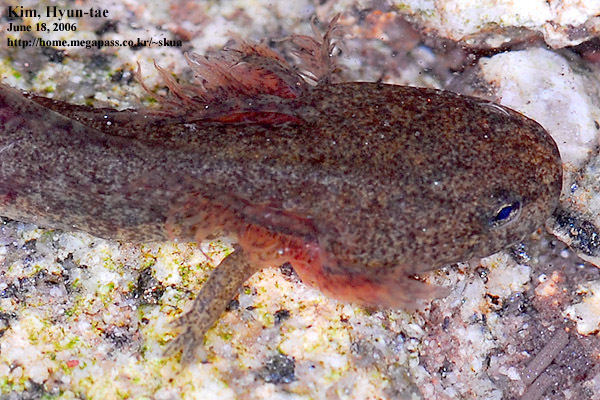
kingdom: Animalia
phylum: Chordata
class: Amphibia
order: Caudata
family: Hynobiidae
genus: Hynobius
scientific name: Hynobius leechii
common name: Gensan salamander
